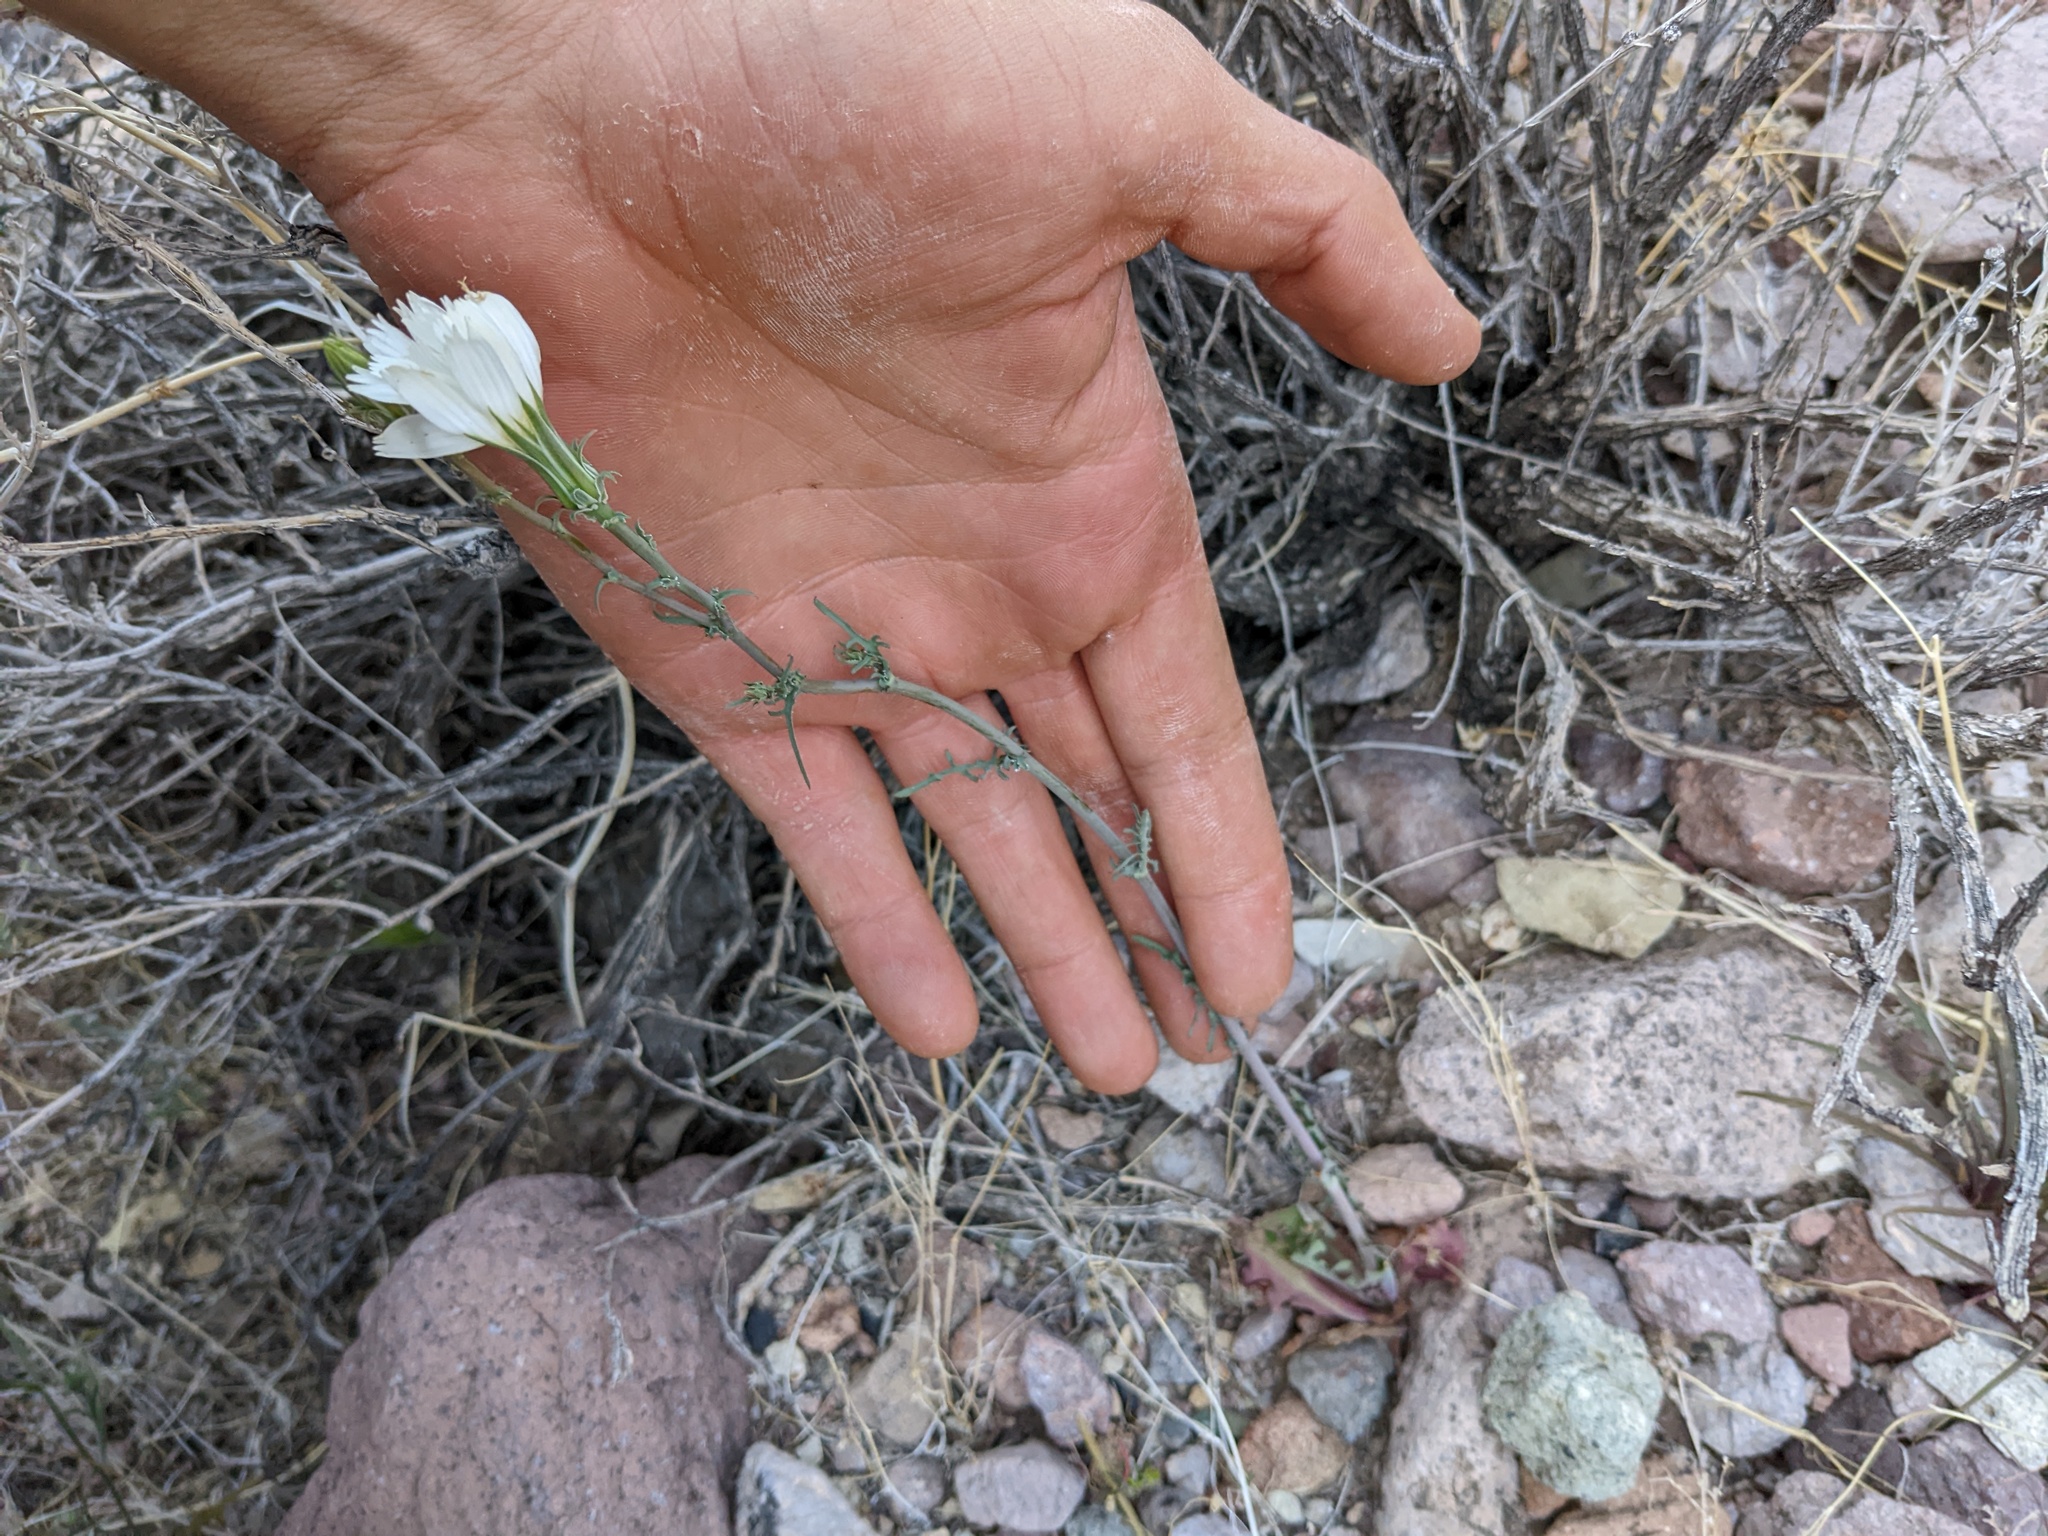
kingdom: Plantae
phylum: Tracheophyta
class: Magnoliopsida
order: Asterales
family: Asteraceae
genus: Rafinesquia
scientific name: Rafinesquia neomexicana
